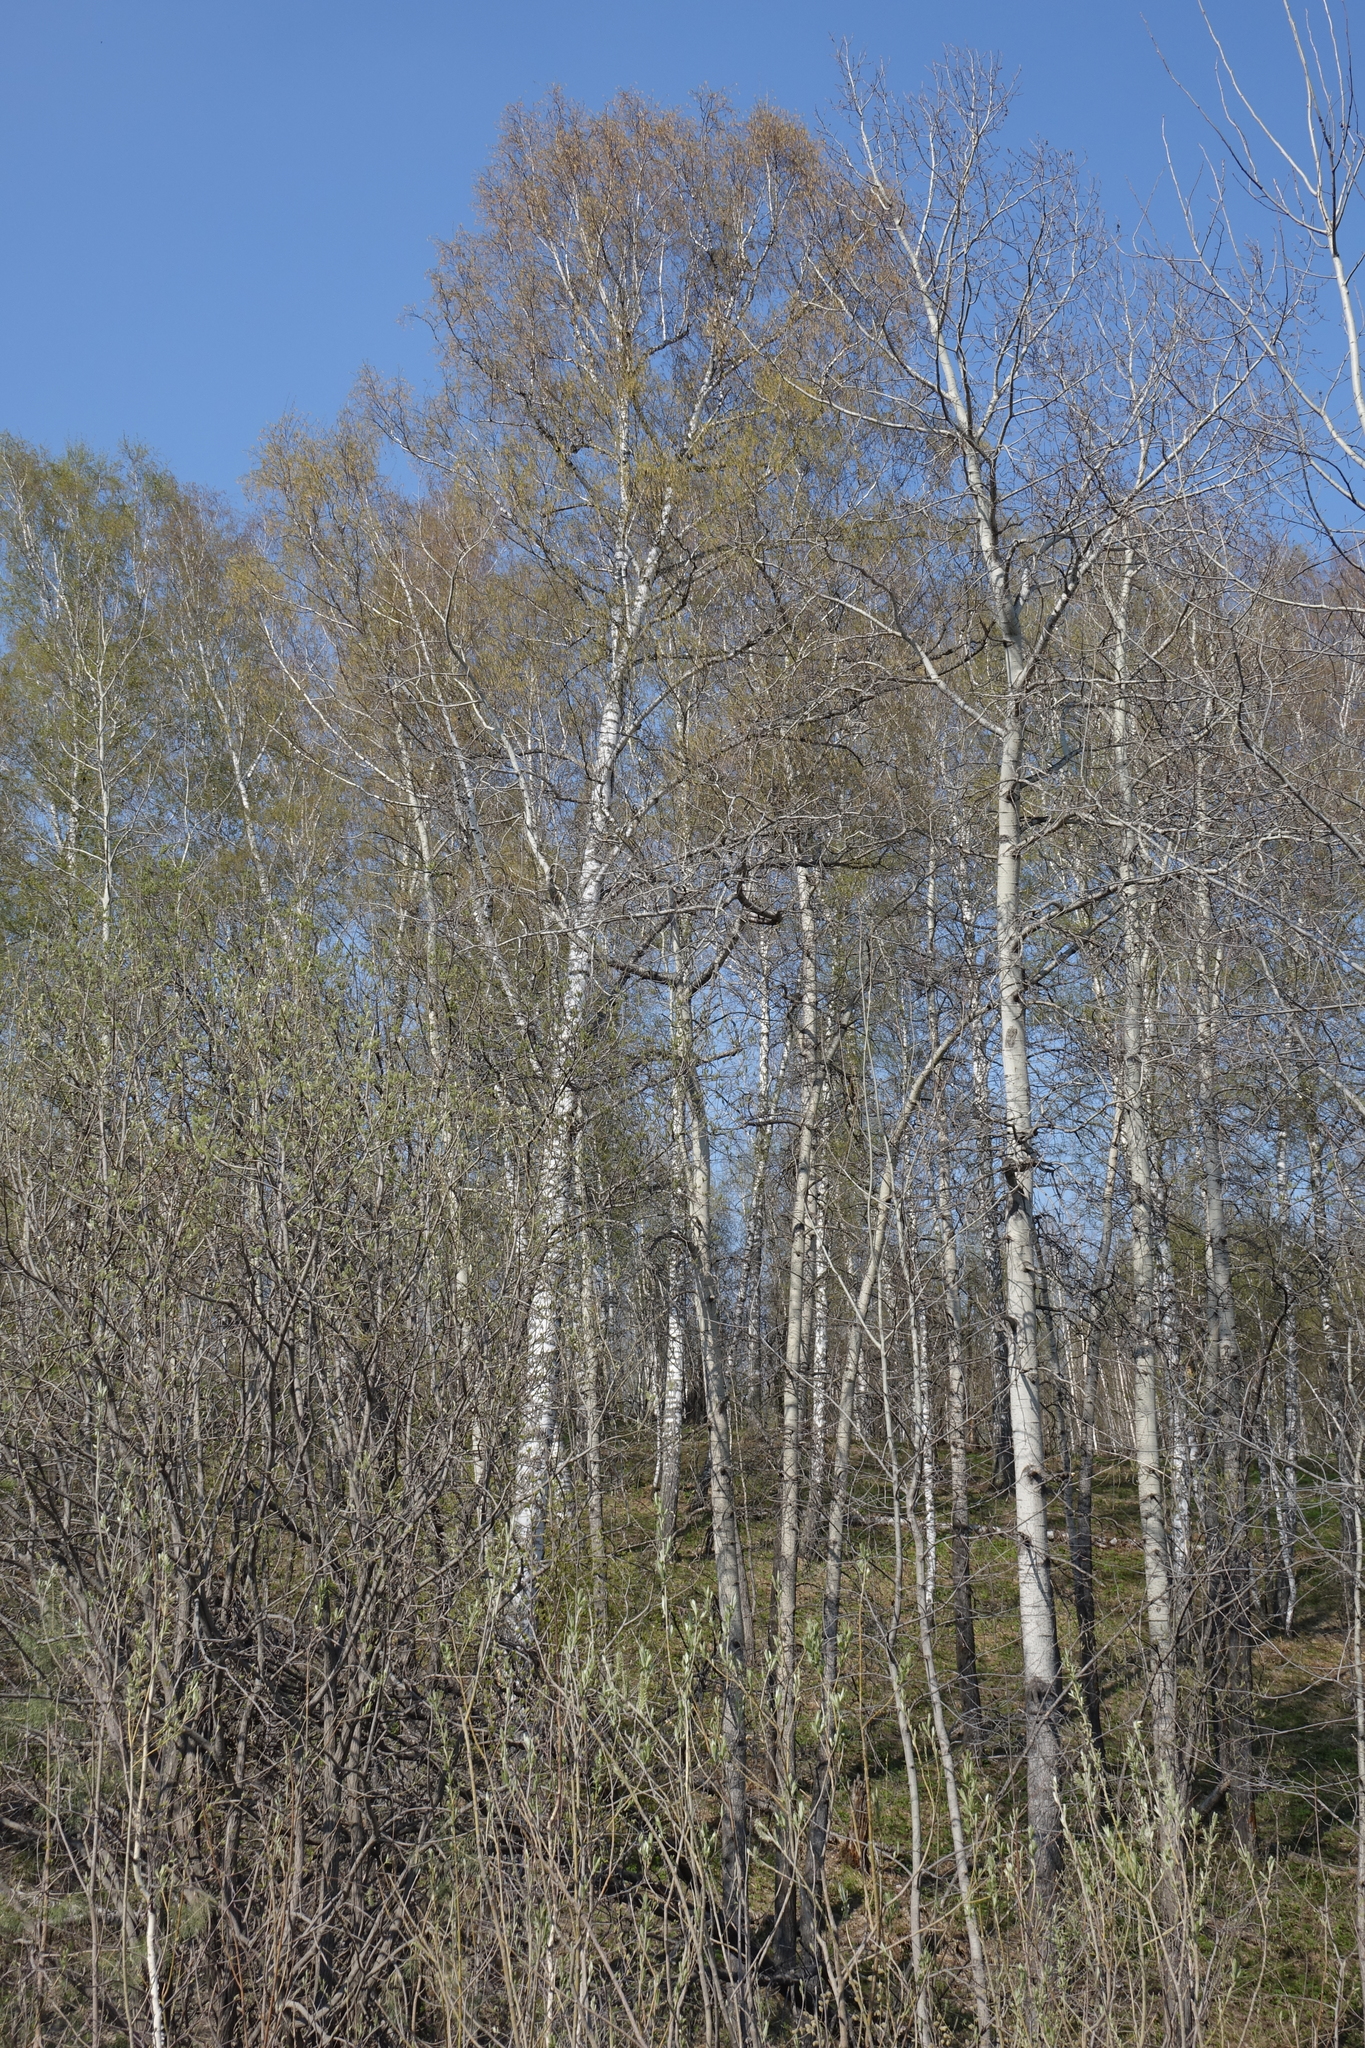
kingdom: Plantae
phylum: Tracheophyta
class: Magnoliopsida
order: Fagales
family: Betulaceae
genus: Betula
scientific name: Betula pendula
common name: Silver birch
